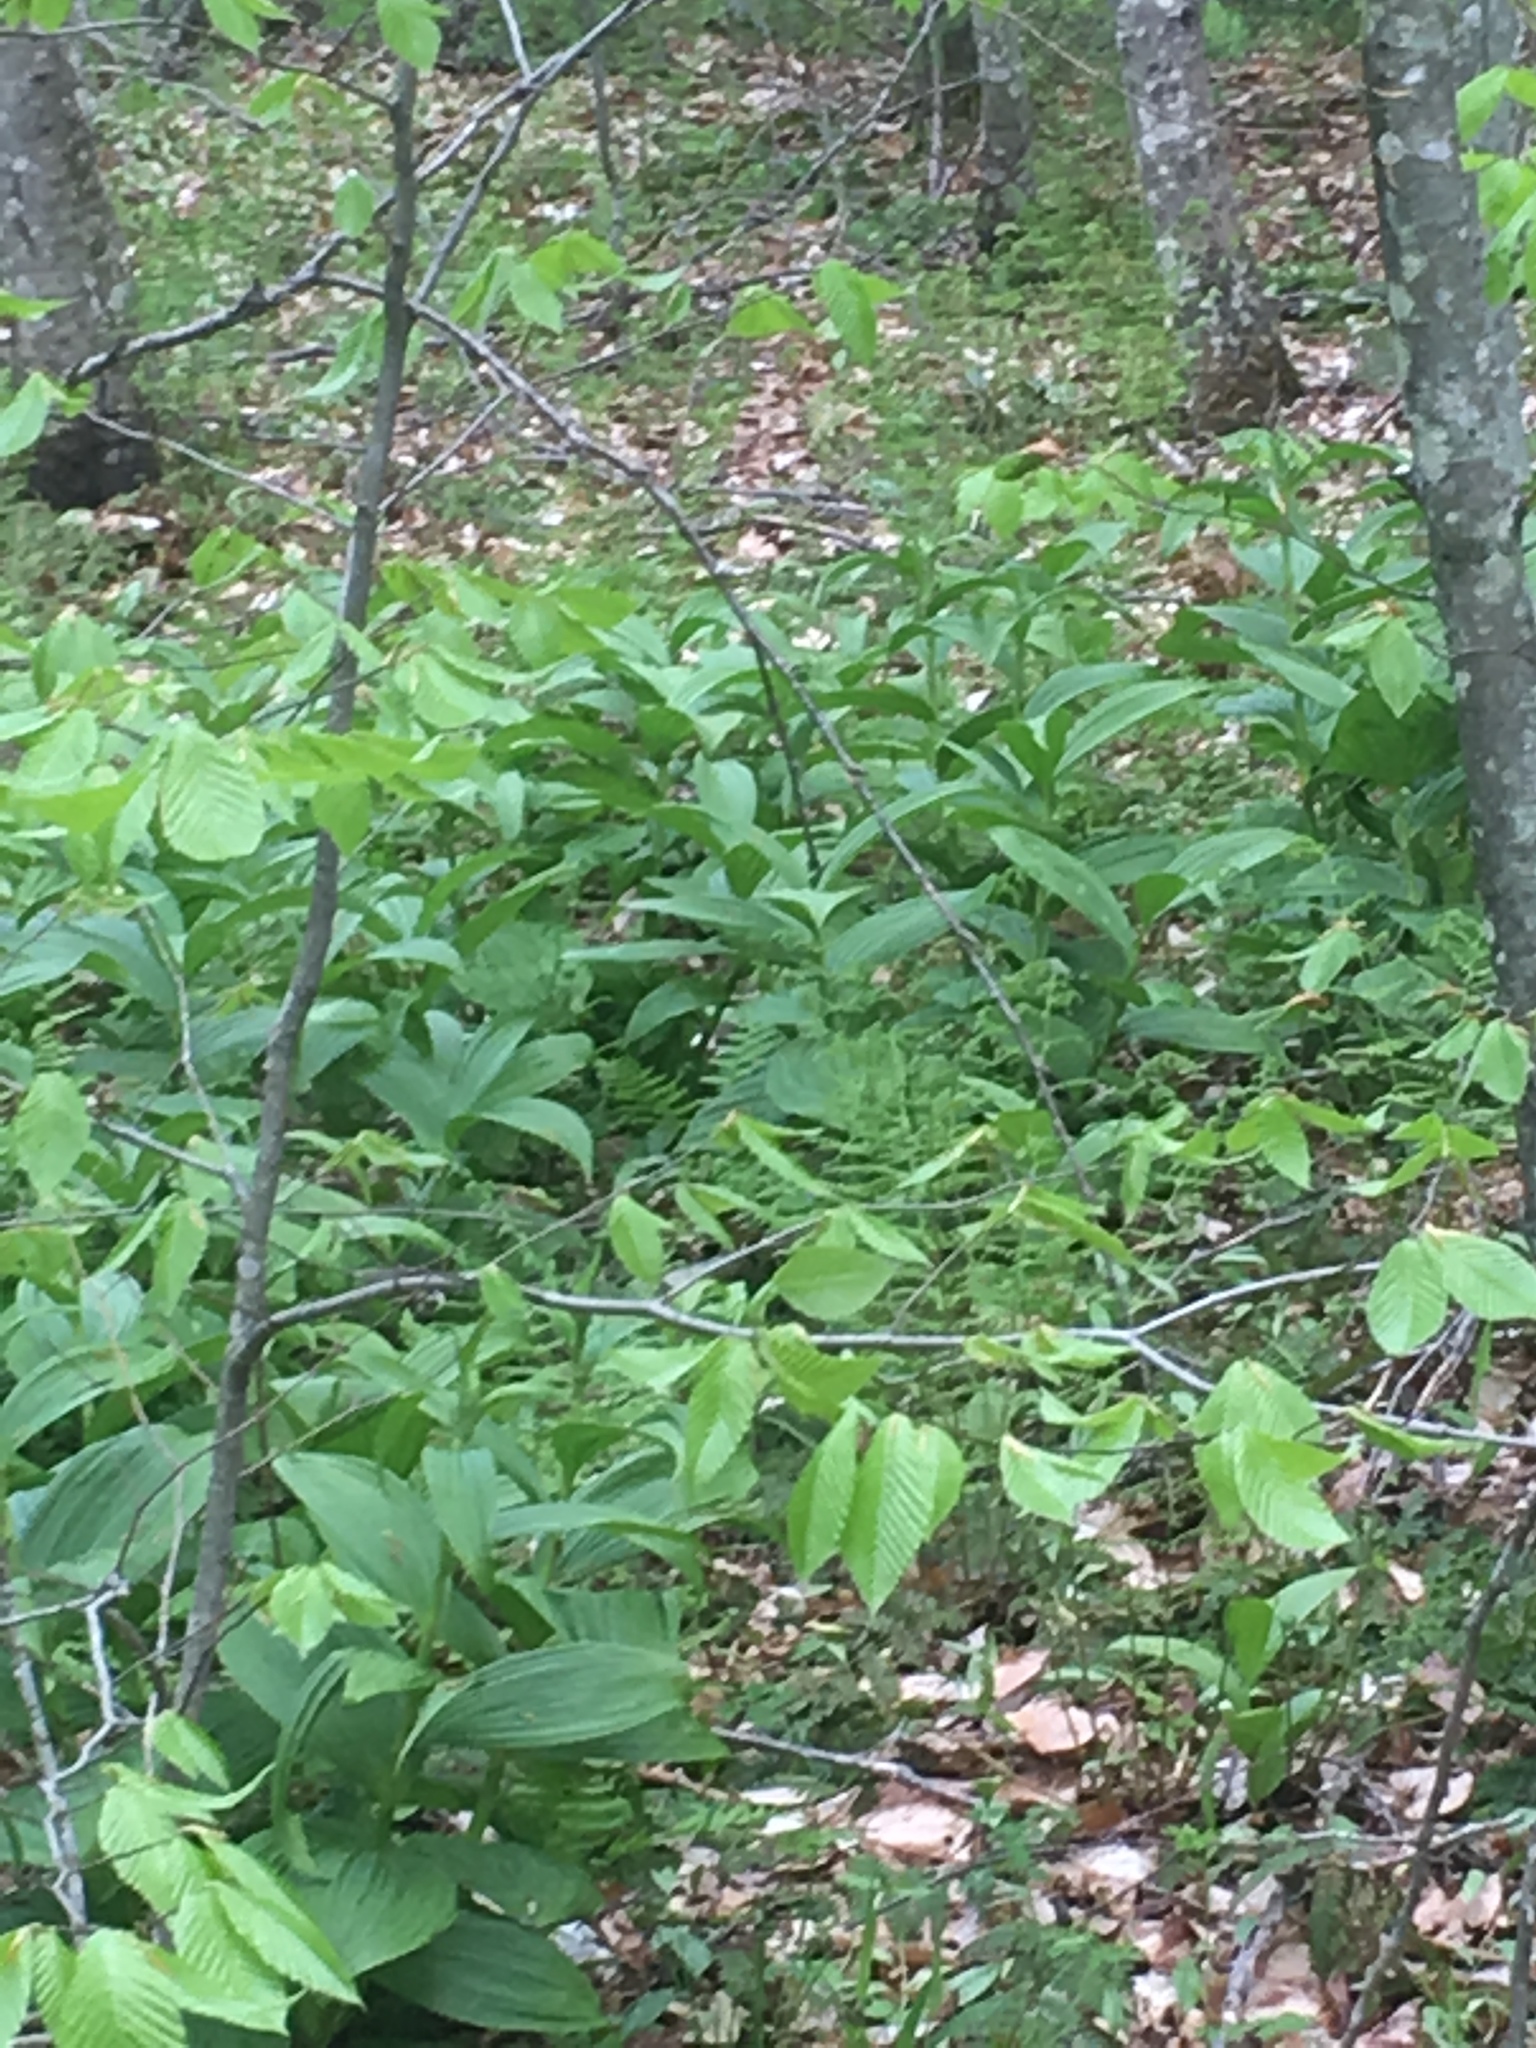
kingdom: Plantae
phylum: Tracheophyta
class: Liliopsida
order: Liliales
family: Melanthiaceae
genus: Veratrum
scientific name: Veratrum viride
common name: American false hellebore
